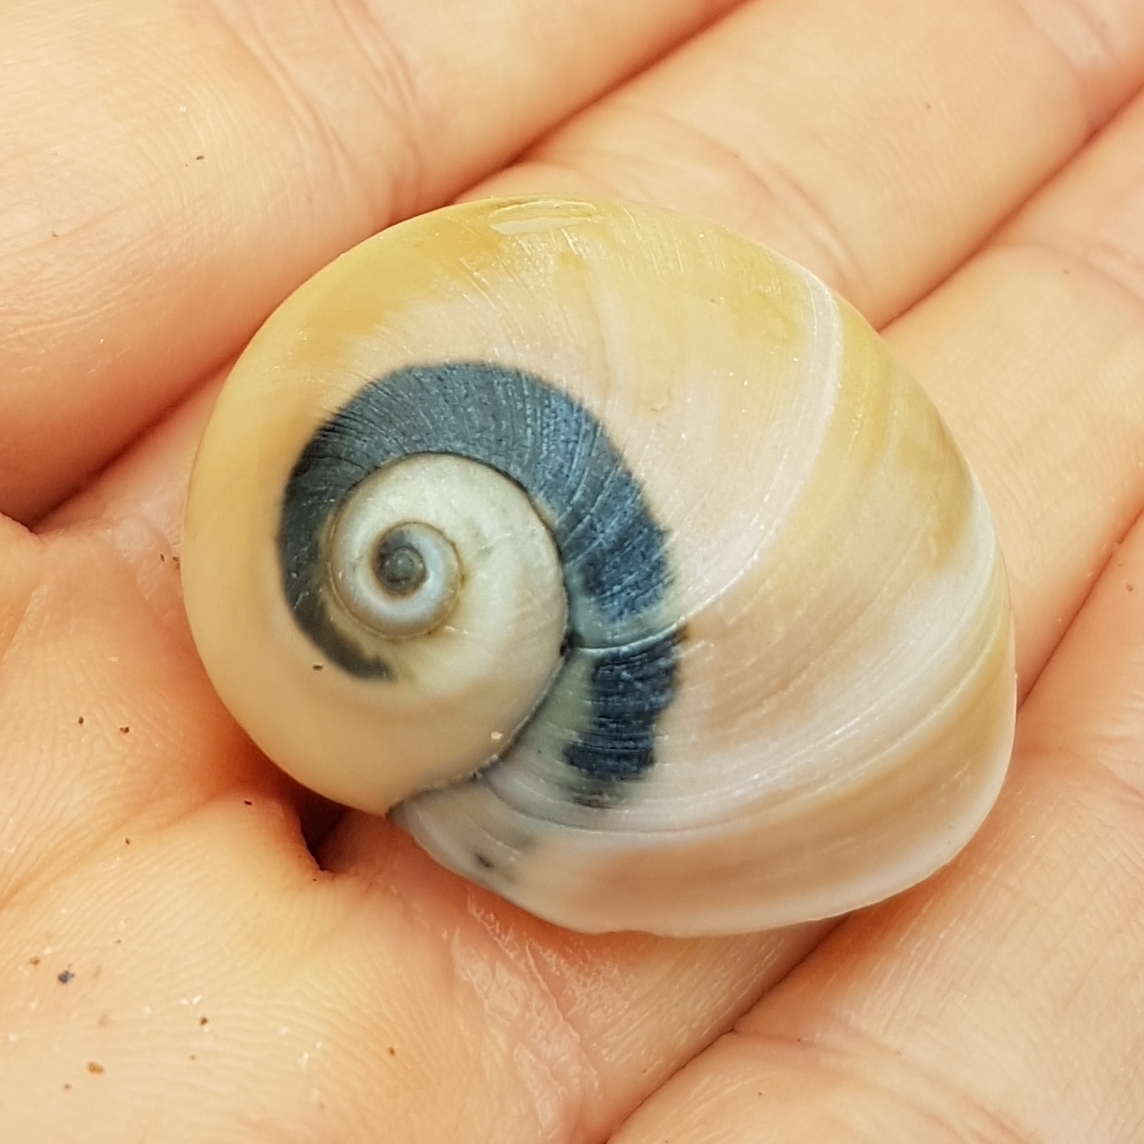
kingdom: Animalia
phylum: Mollusca
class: Gastropoda
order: Littorinimorpha
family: Naticidae
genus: Neverita
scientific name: Neverita josephinia
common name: Josephine's moonsnail
